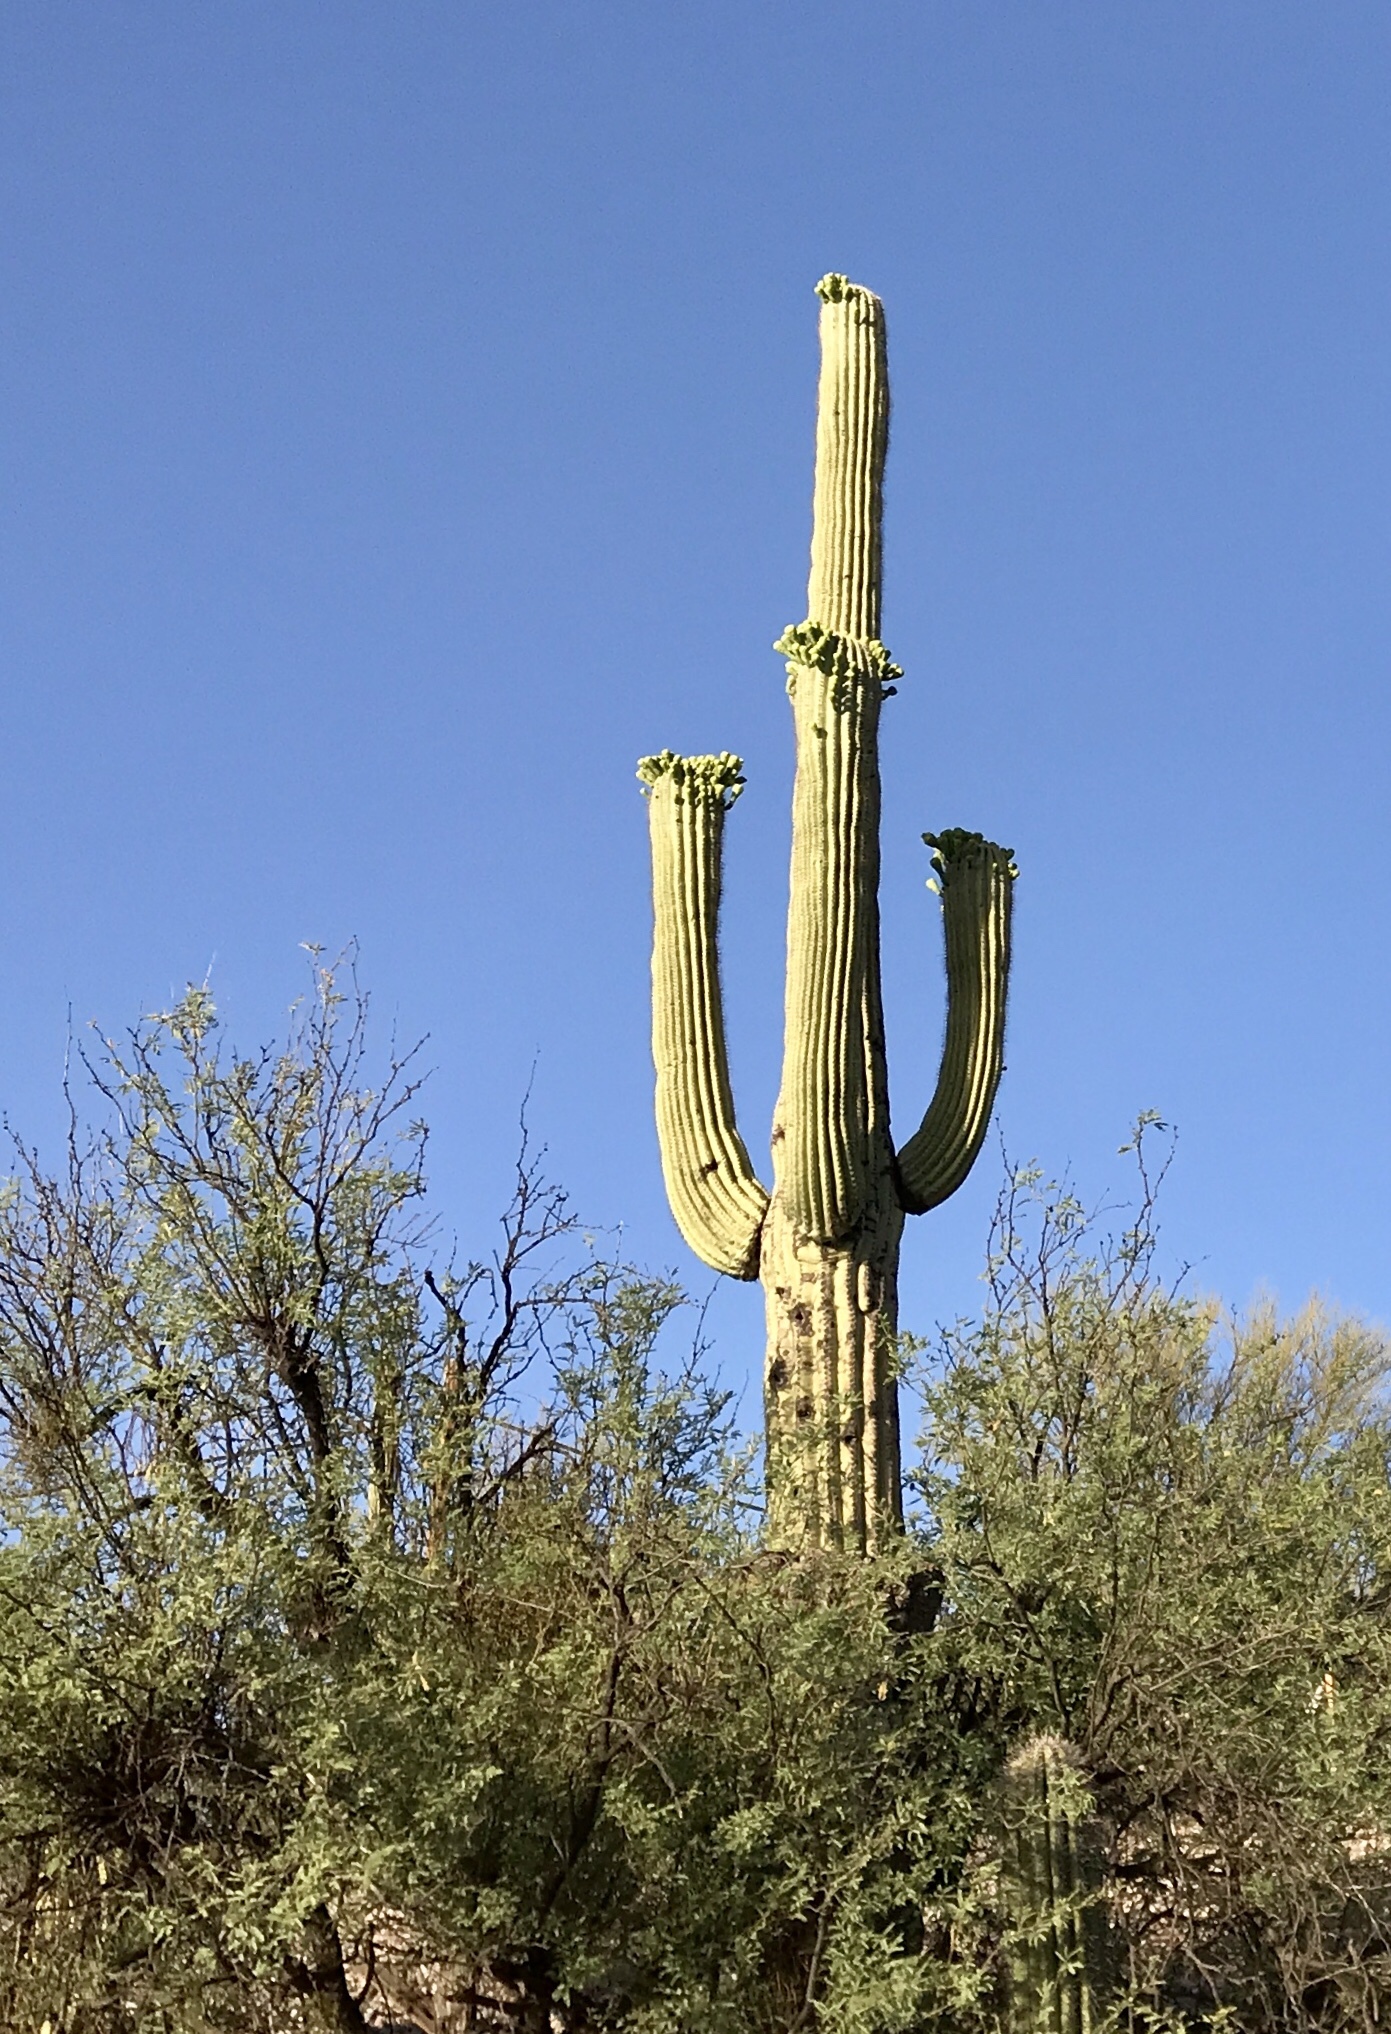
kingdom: Plantae
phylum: Tracheophyta
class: Magnoliopsida
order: Caryophyllales
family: Cactaceae
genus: Carnegiea
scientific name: Carnegiea gigantea
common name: Saguaro
